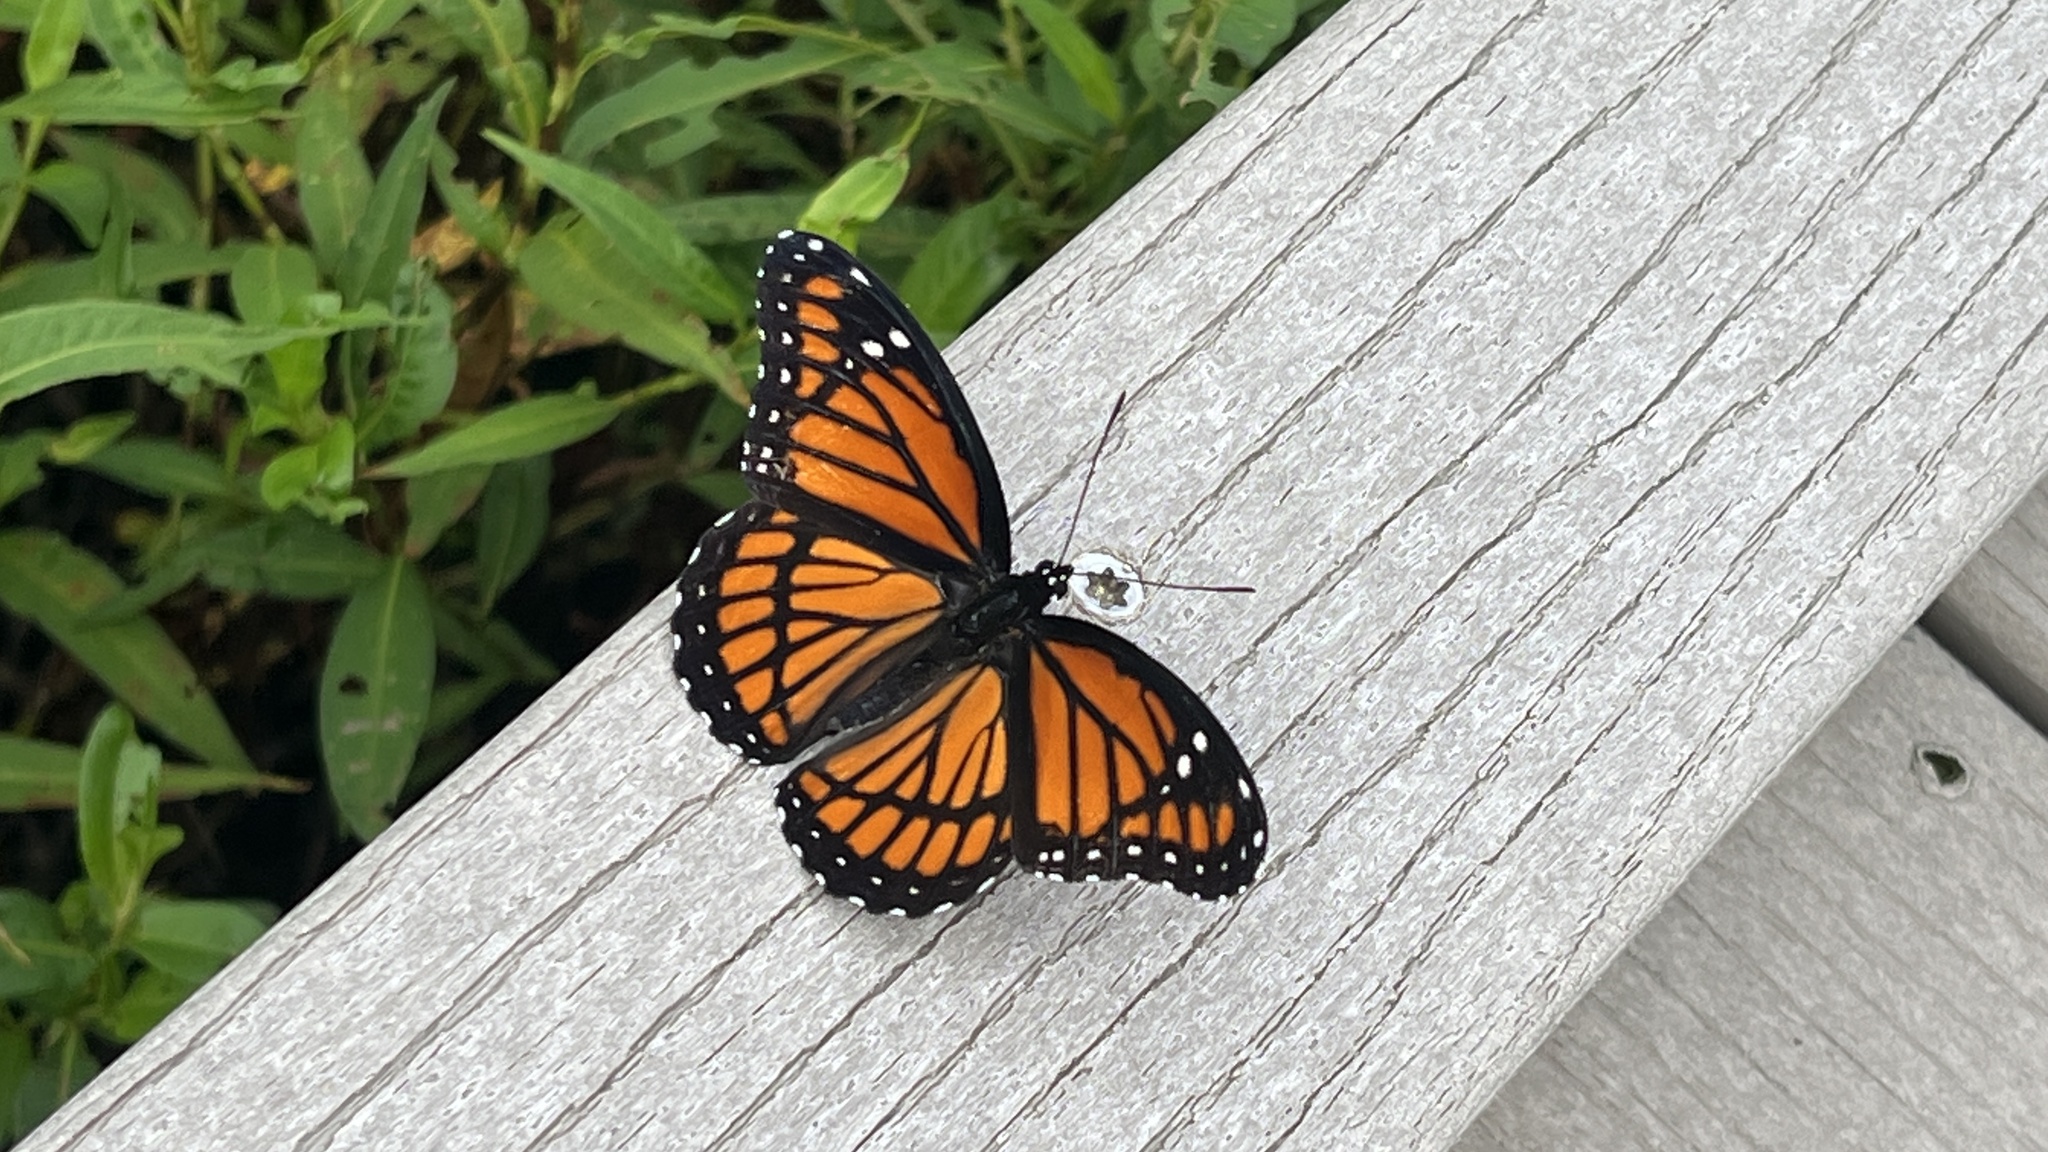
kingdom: Animalia
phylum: Arthropoda
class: Insecta
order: Lepidoptera
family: Nymphalidae
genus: Limenitis
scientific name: Limenitis archippus
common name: Viceroy
